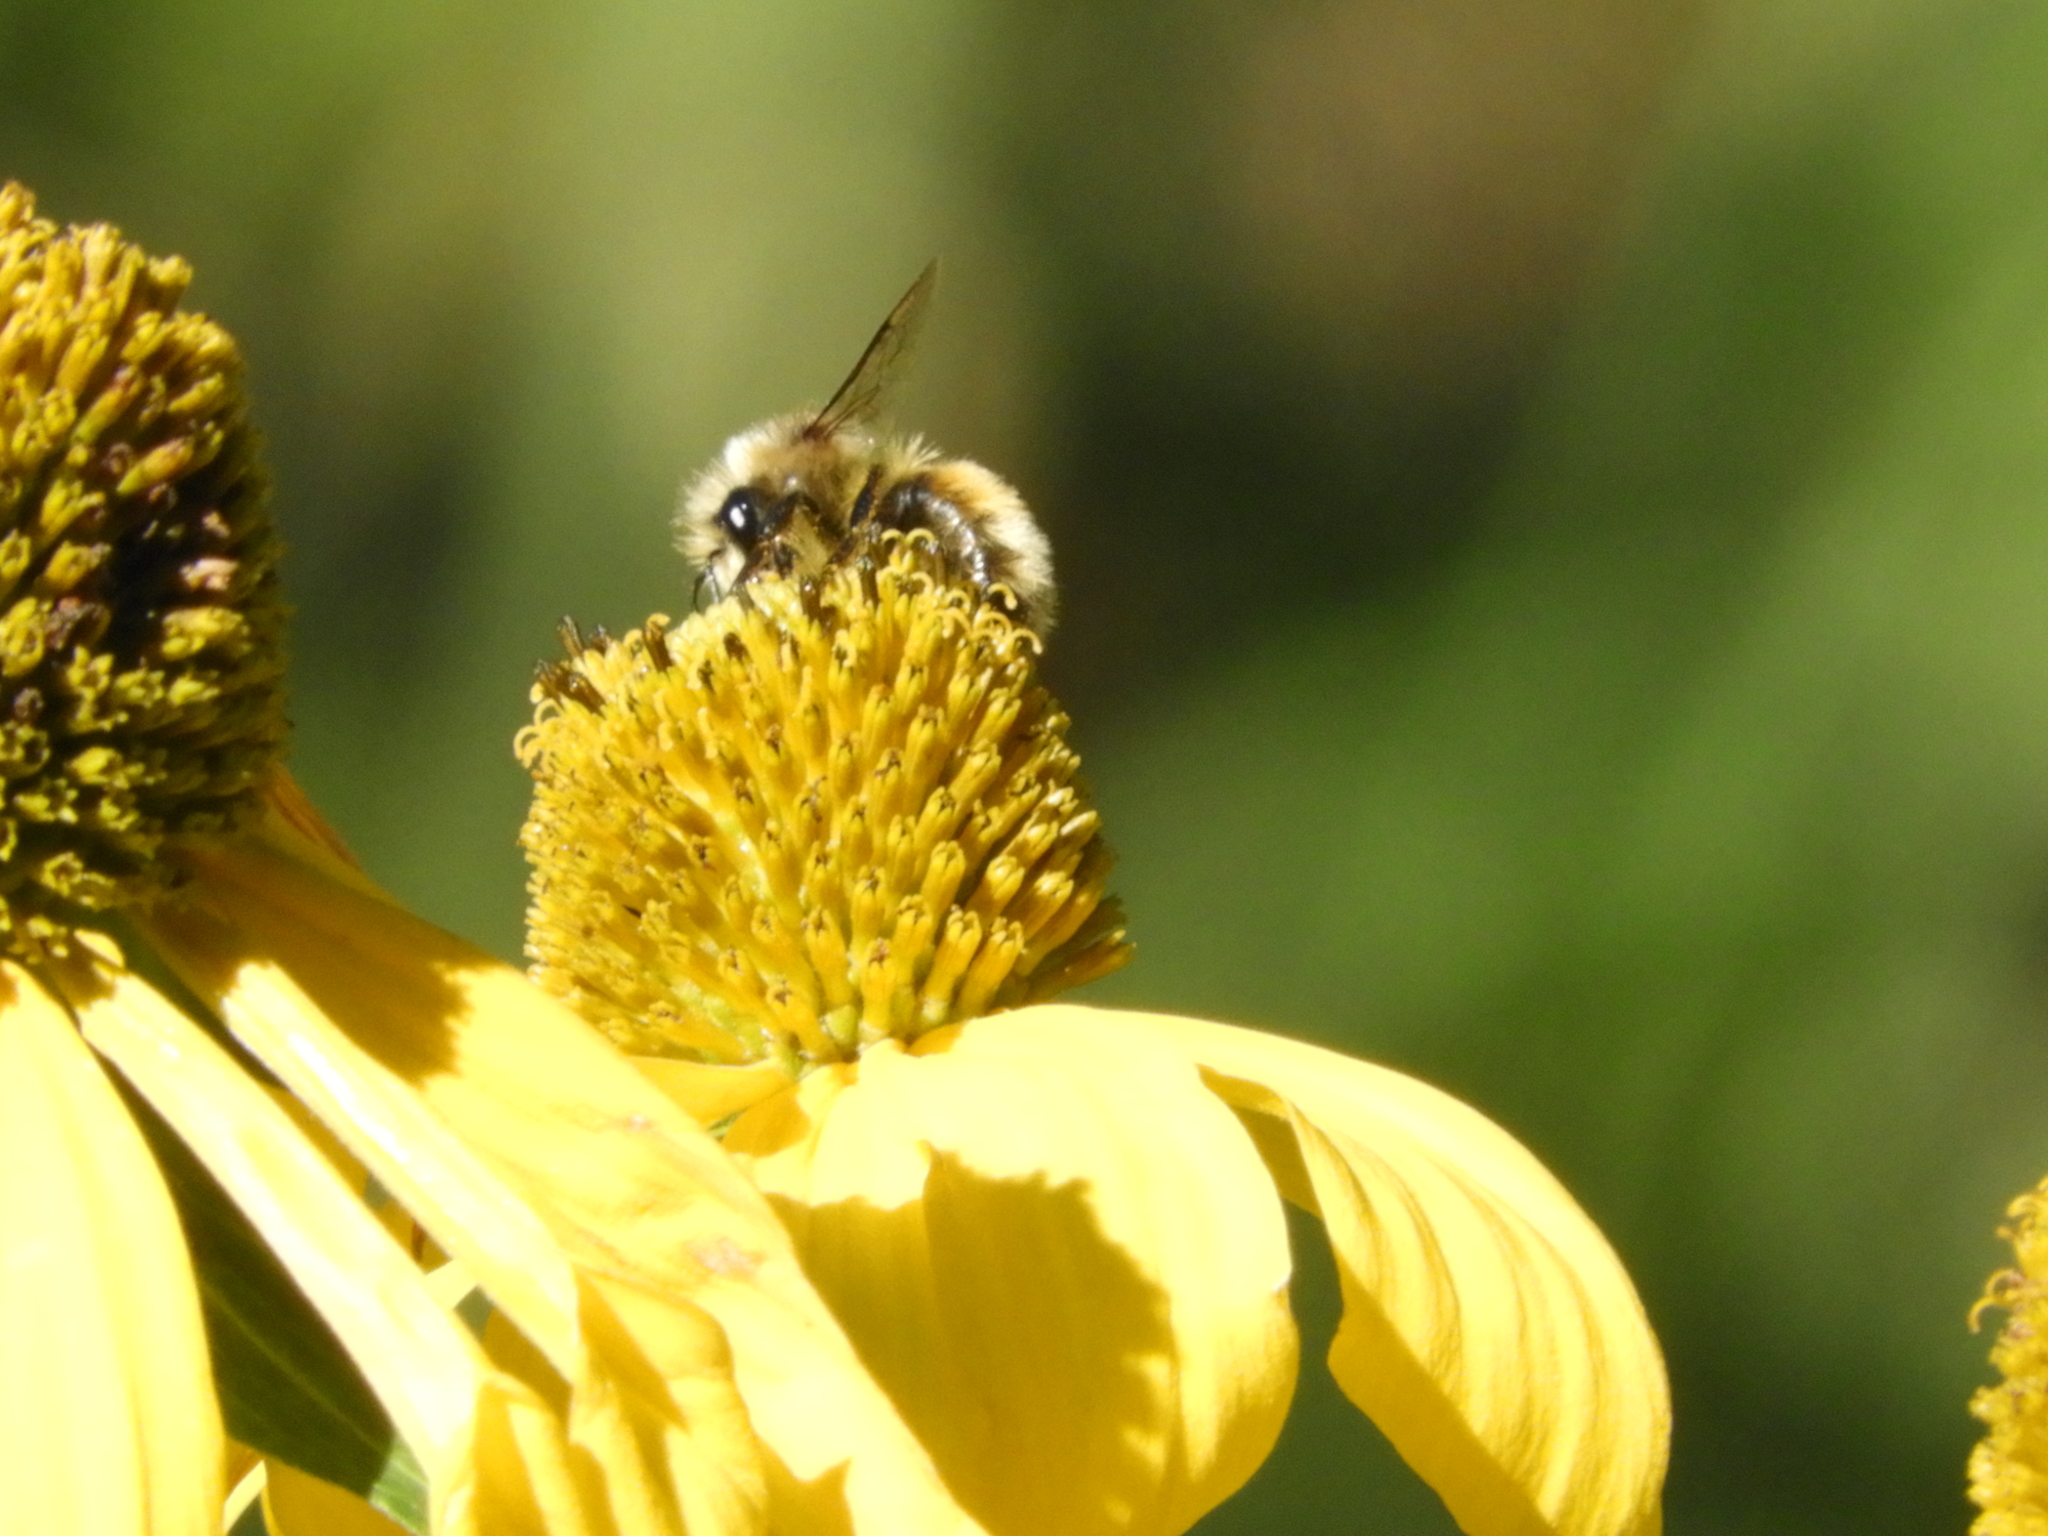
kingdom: Animalia
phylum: Arthropoda
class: Insecta
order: Hymenoptera
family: Apidae
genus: Pyrobombus
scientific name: Pyrobombus
